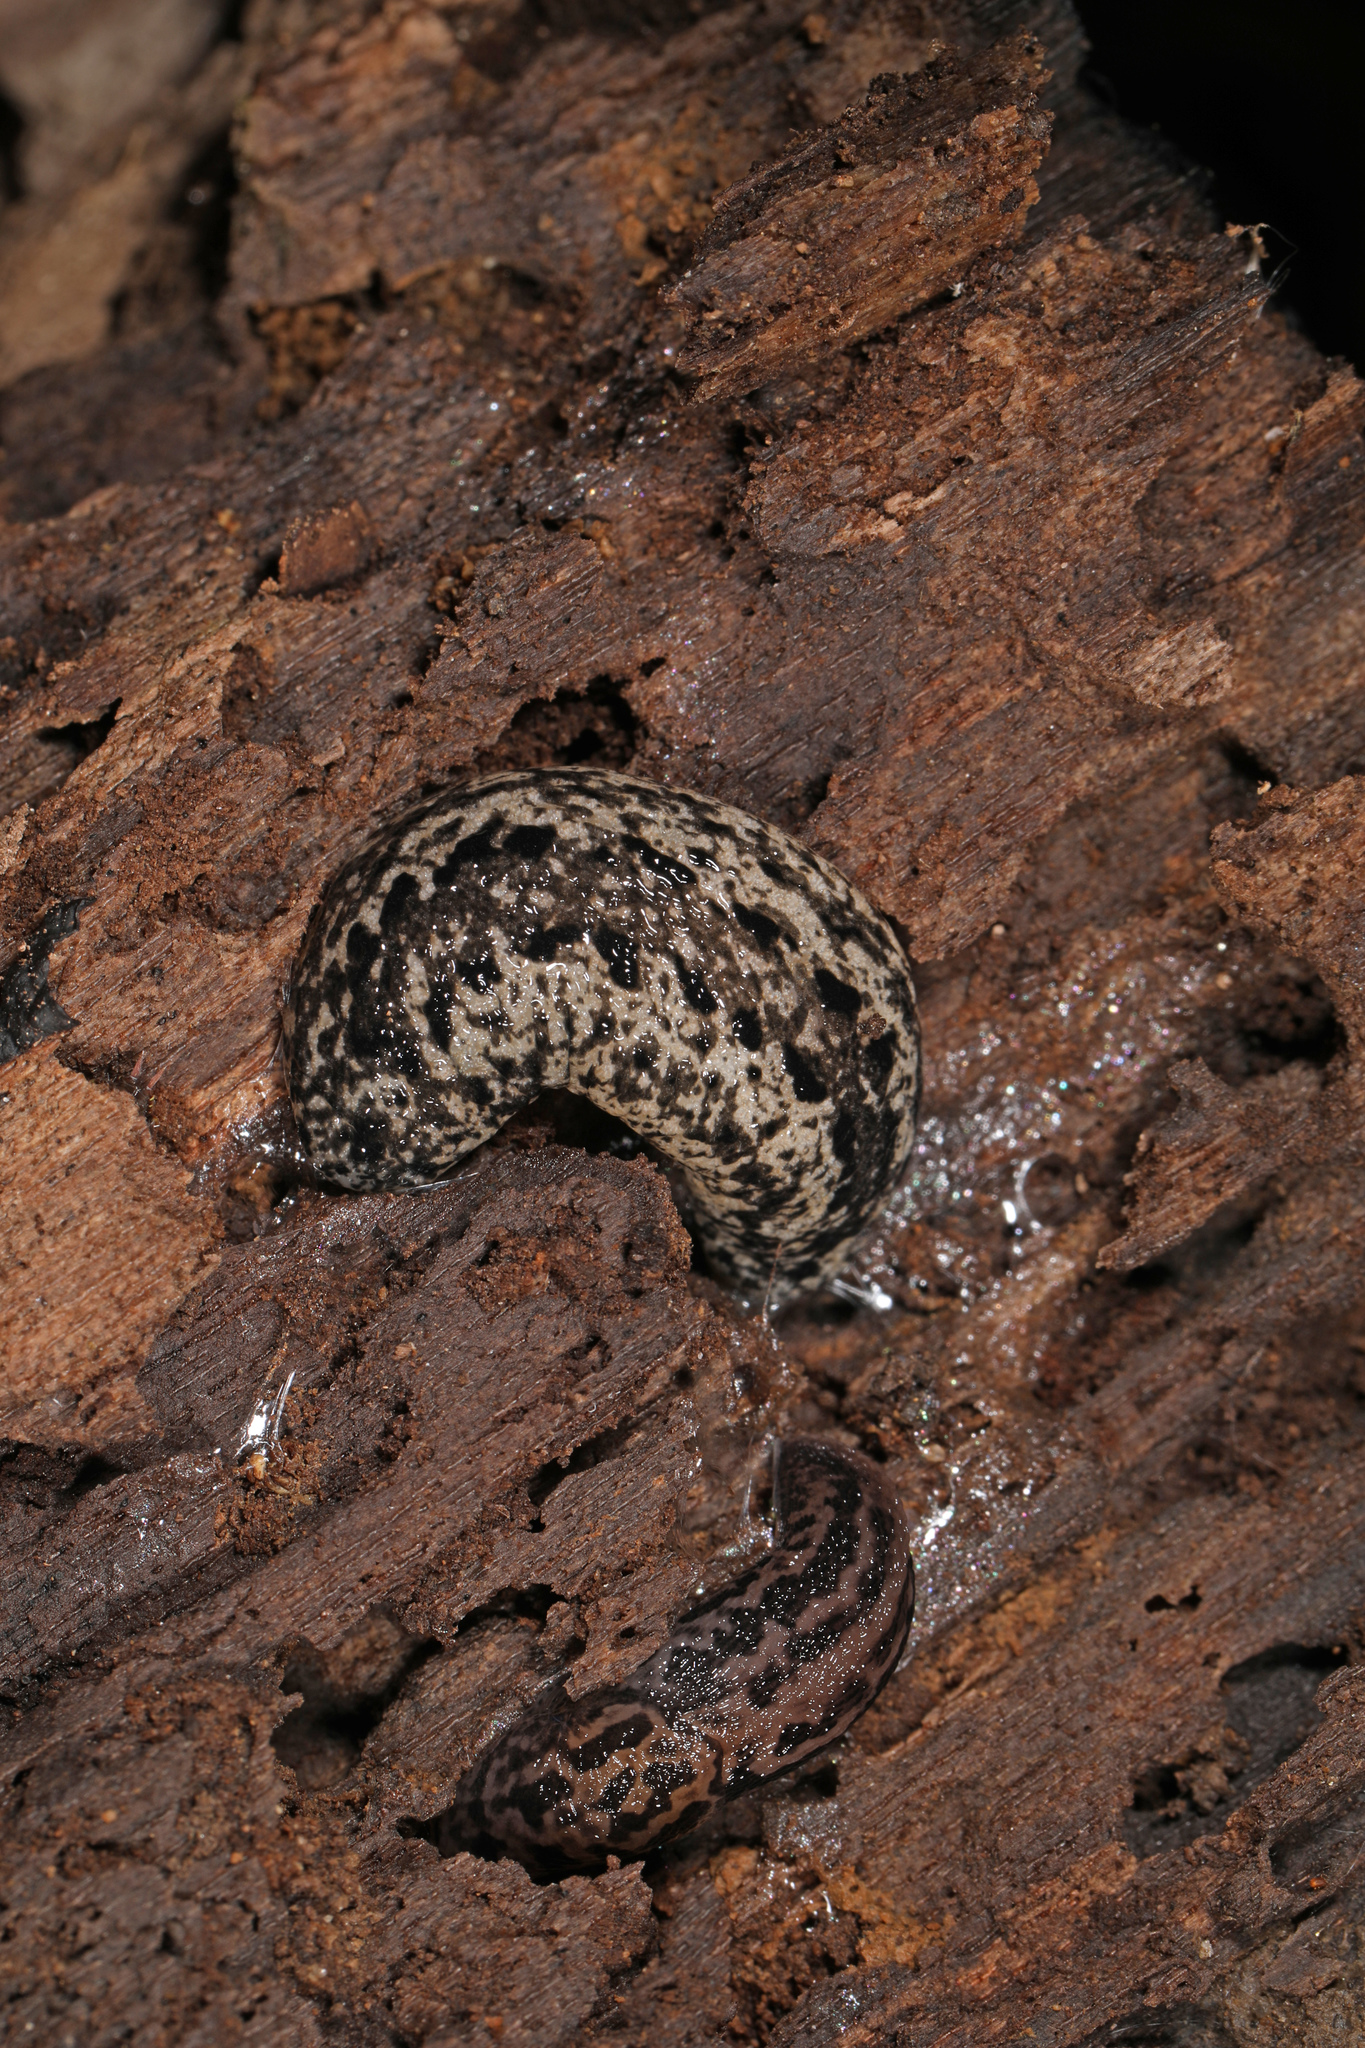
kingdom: Animalia
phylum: Mollusca
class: Gastropoda
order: Stylommatophora
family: Limacidae
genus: Limax
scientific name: Limax maximus
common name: Great grey slug
